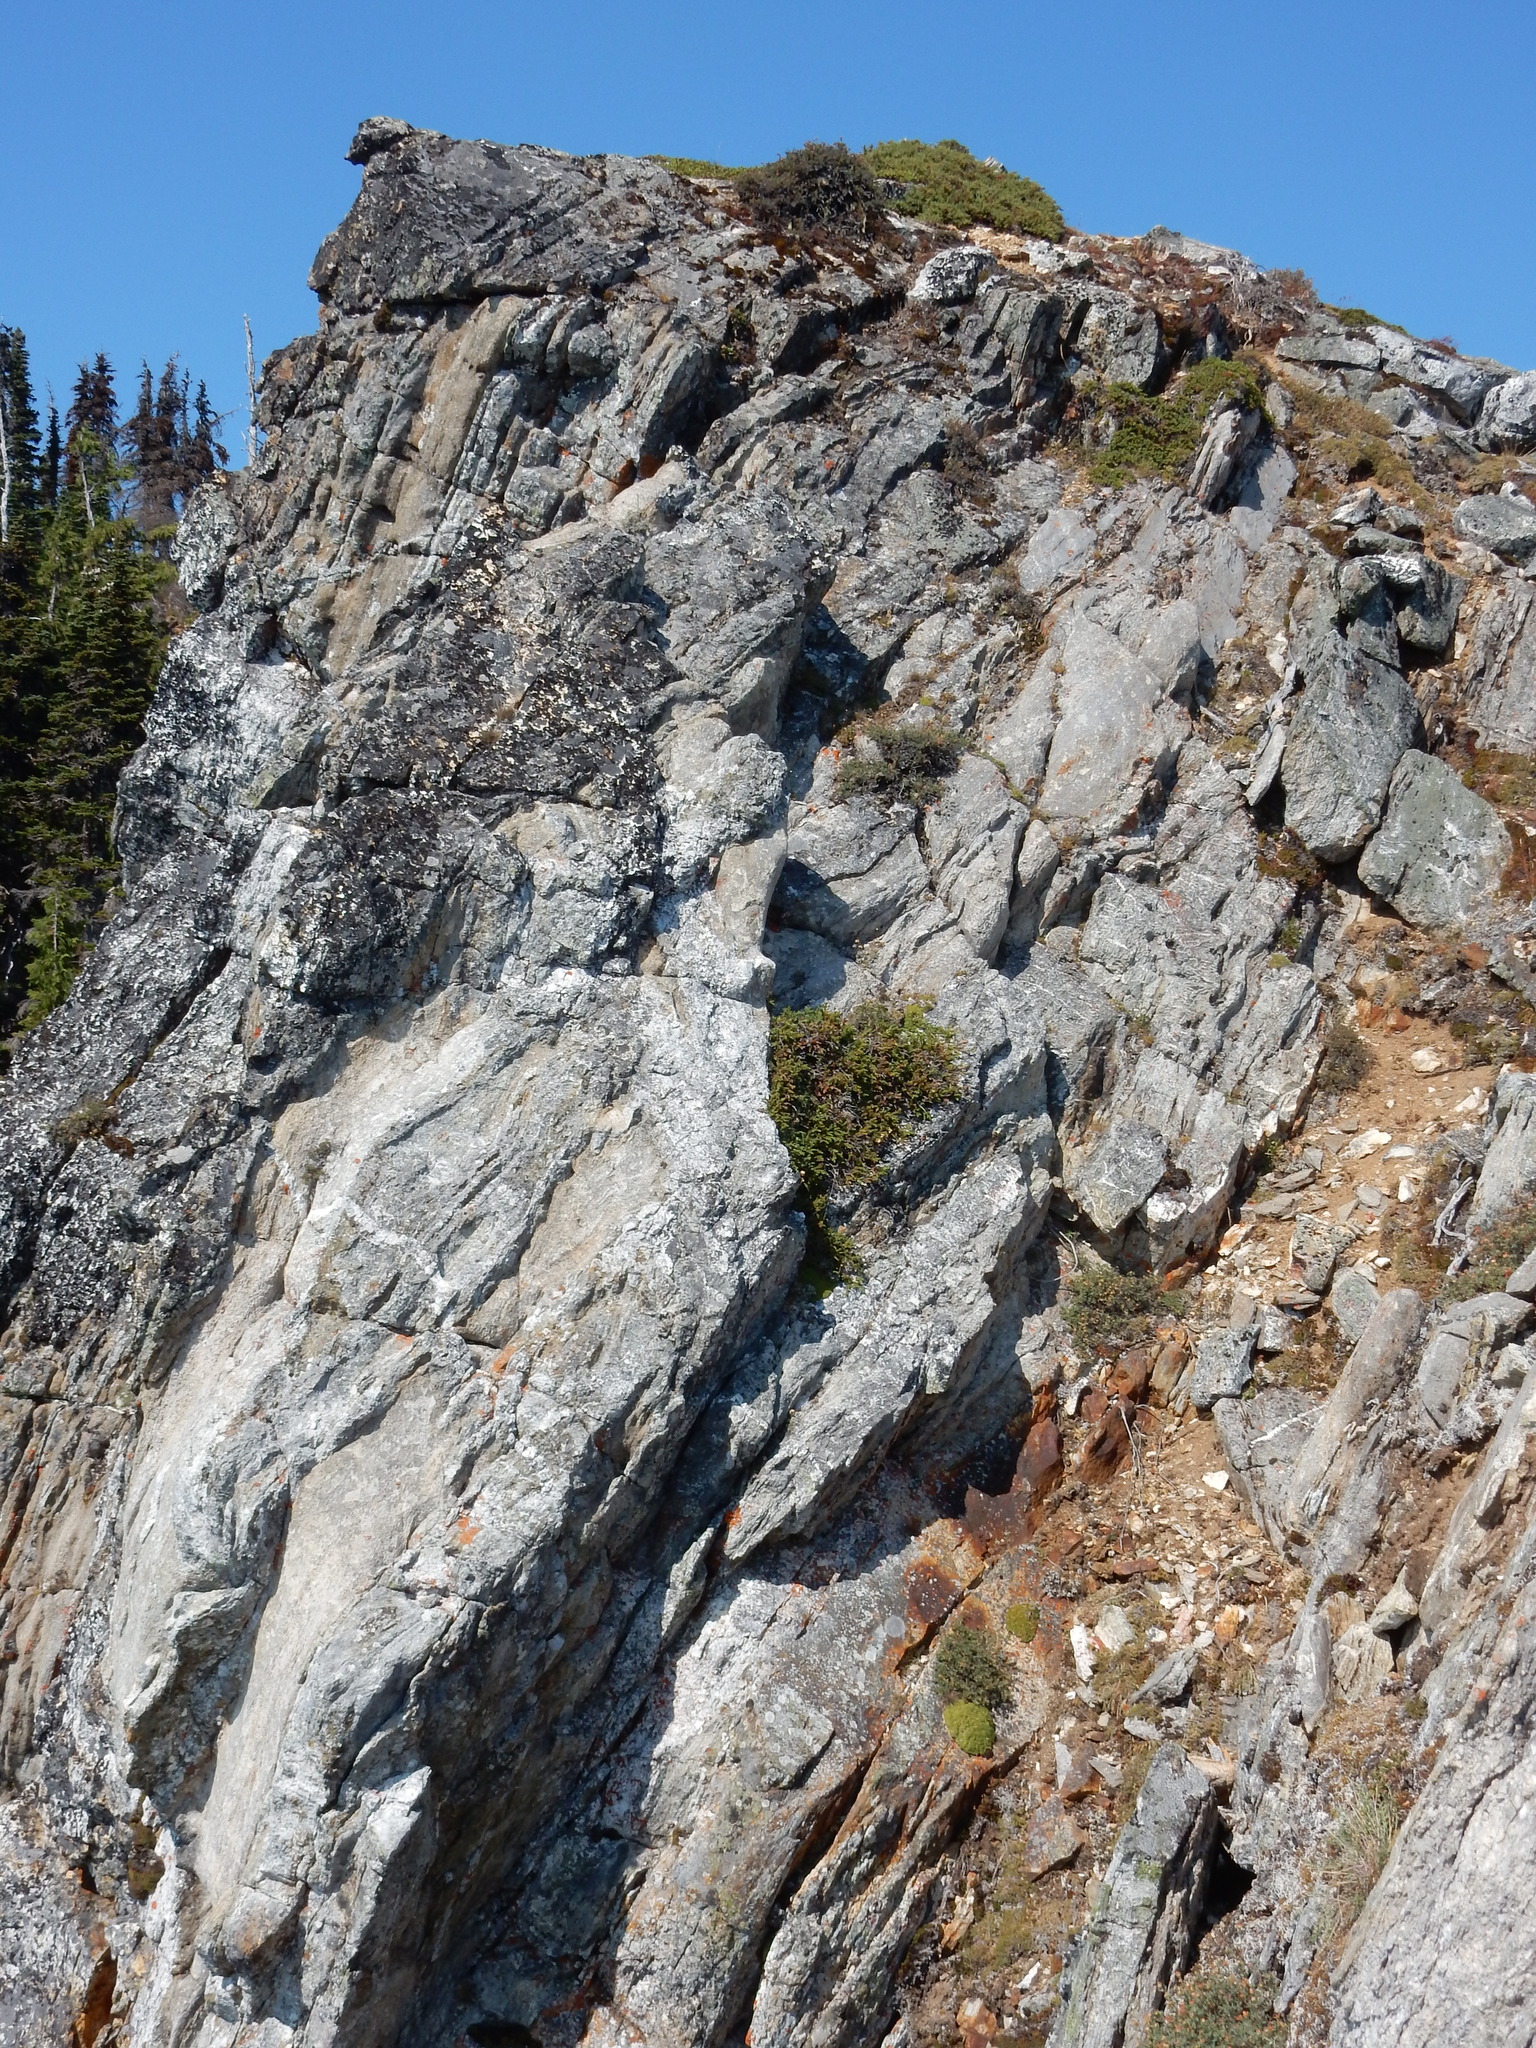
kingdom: Plantae
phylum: Tracheophyta
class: Magnoliopsida
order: Caryophyllales
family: Caryophyllaceae
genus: Silene
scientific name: Silene acaulis
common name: Moss campion
